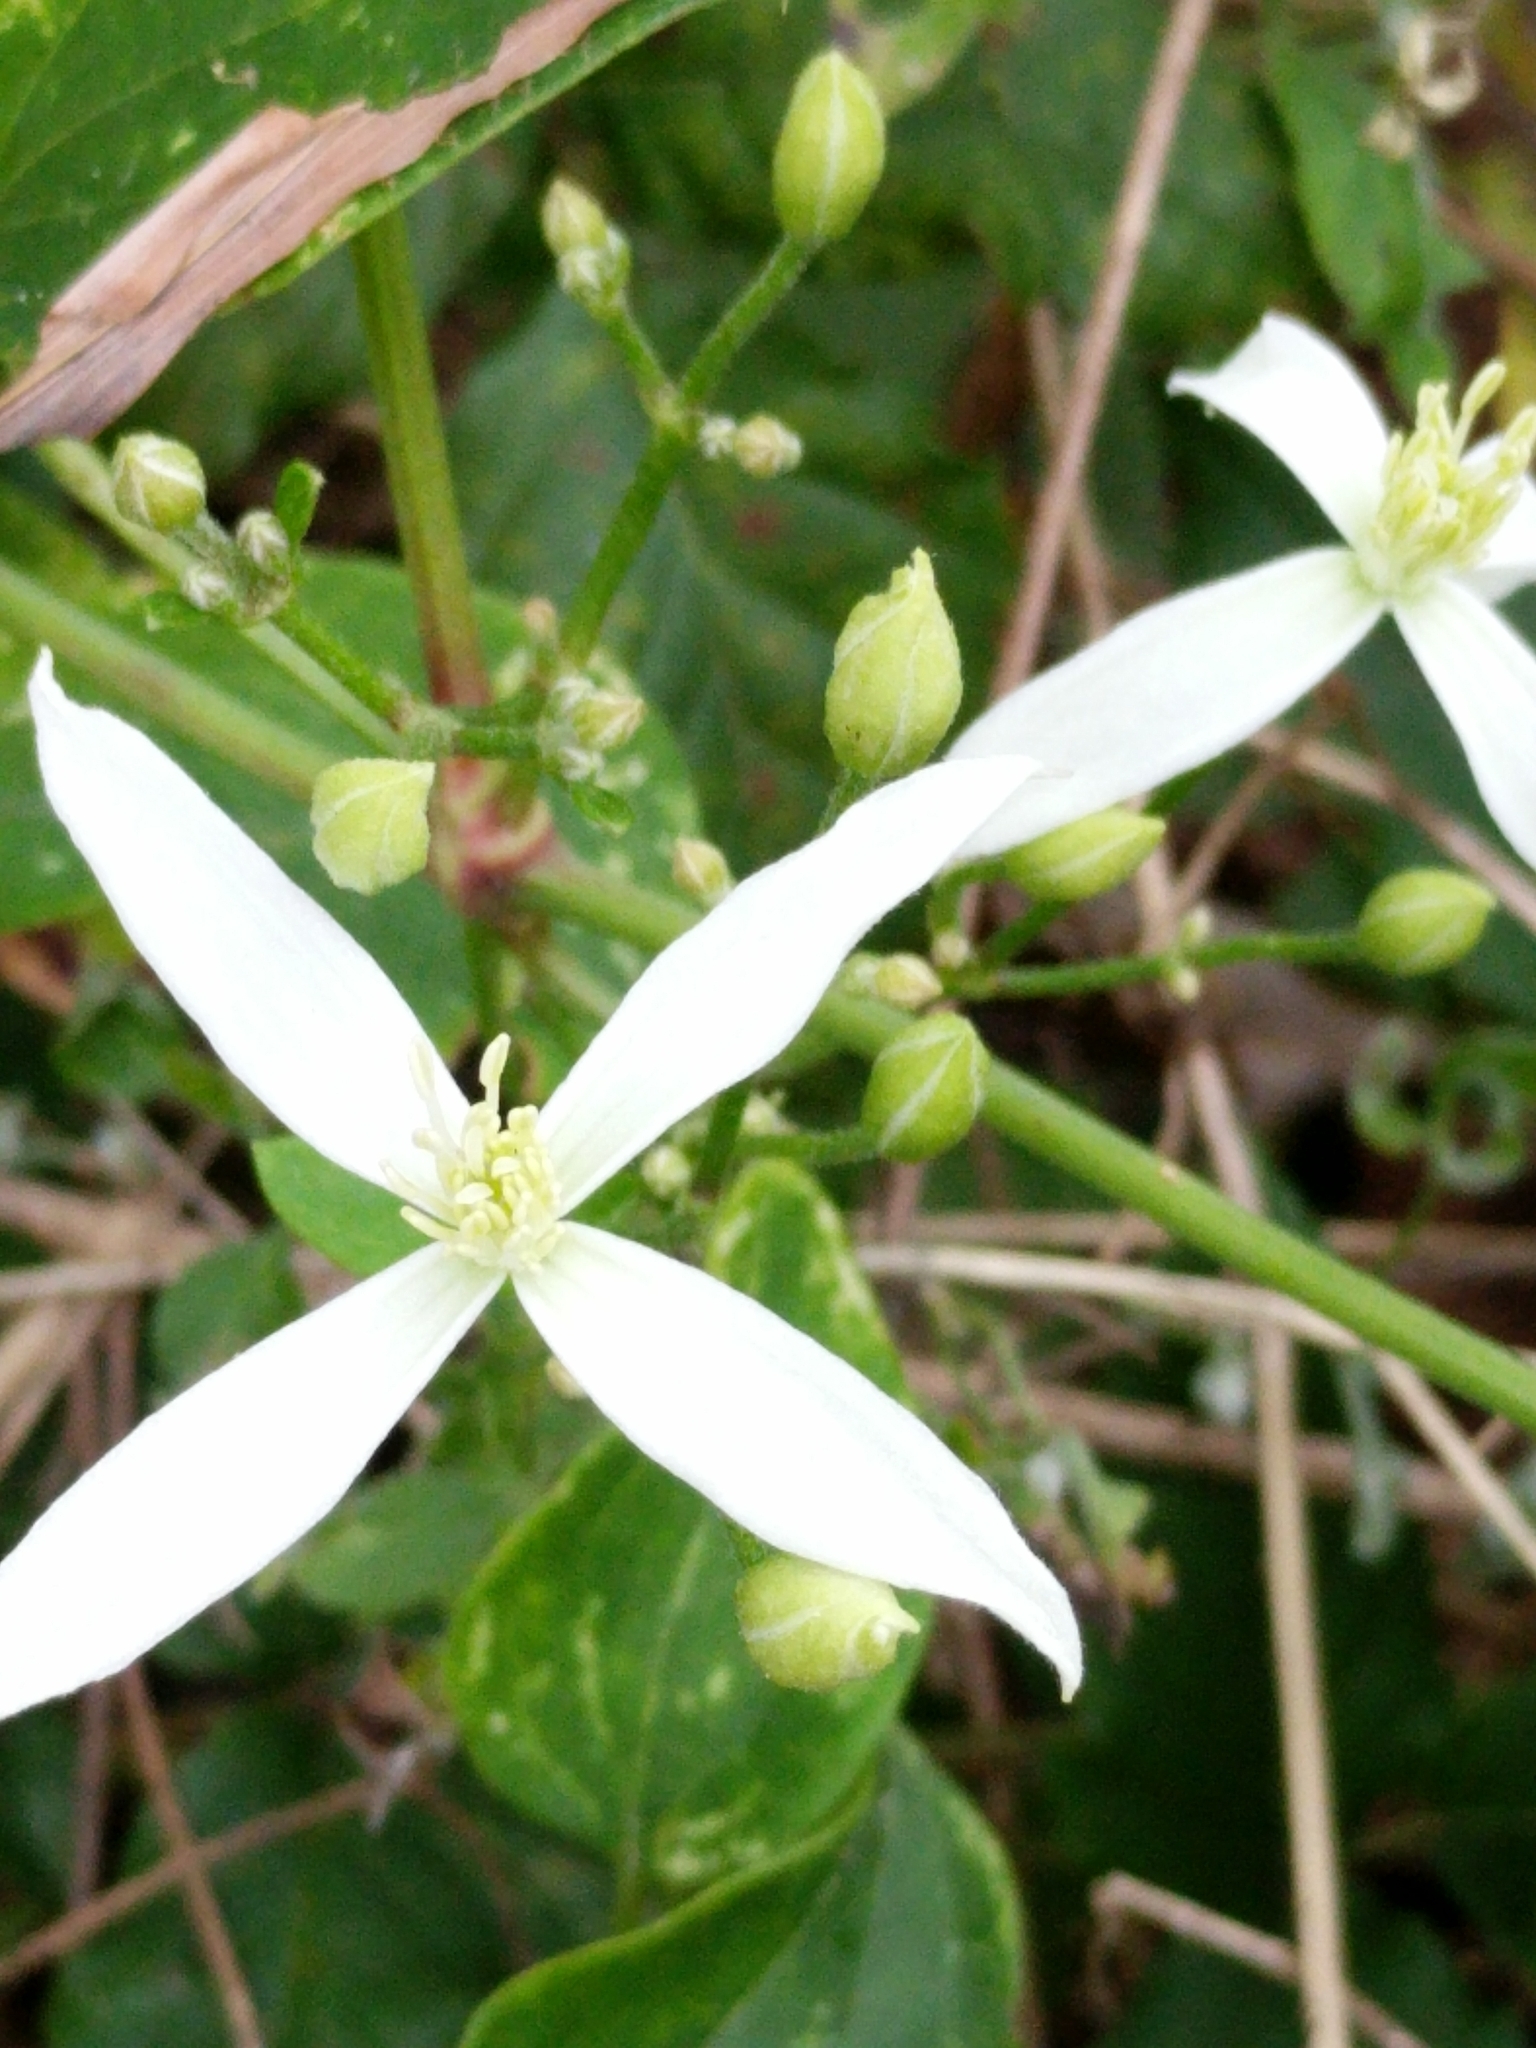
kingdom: Plantae
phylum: Tracheophyta
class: Magnoliopsida
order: Ranunculales
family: Ranunculaceae
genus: Clematis
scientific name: Clematis terniflora
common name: Sweet autumn clematis
